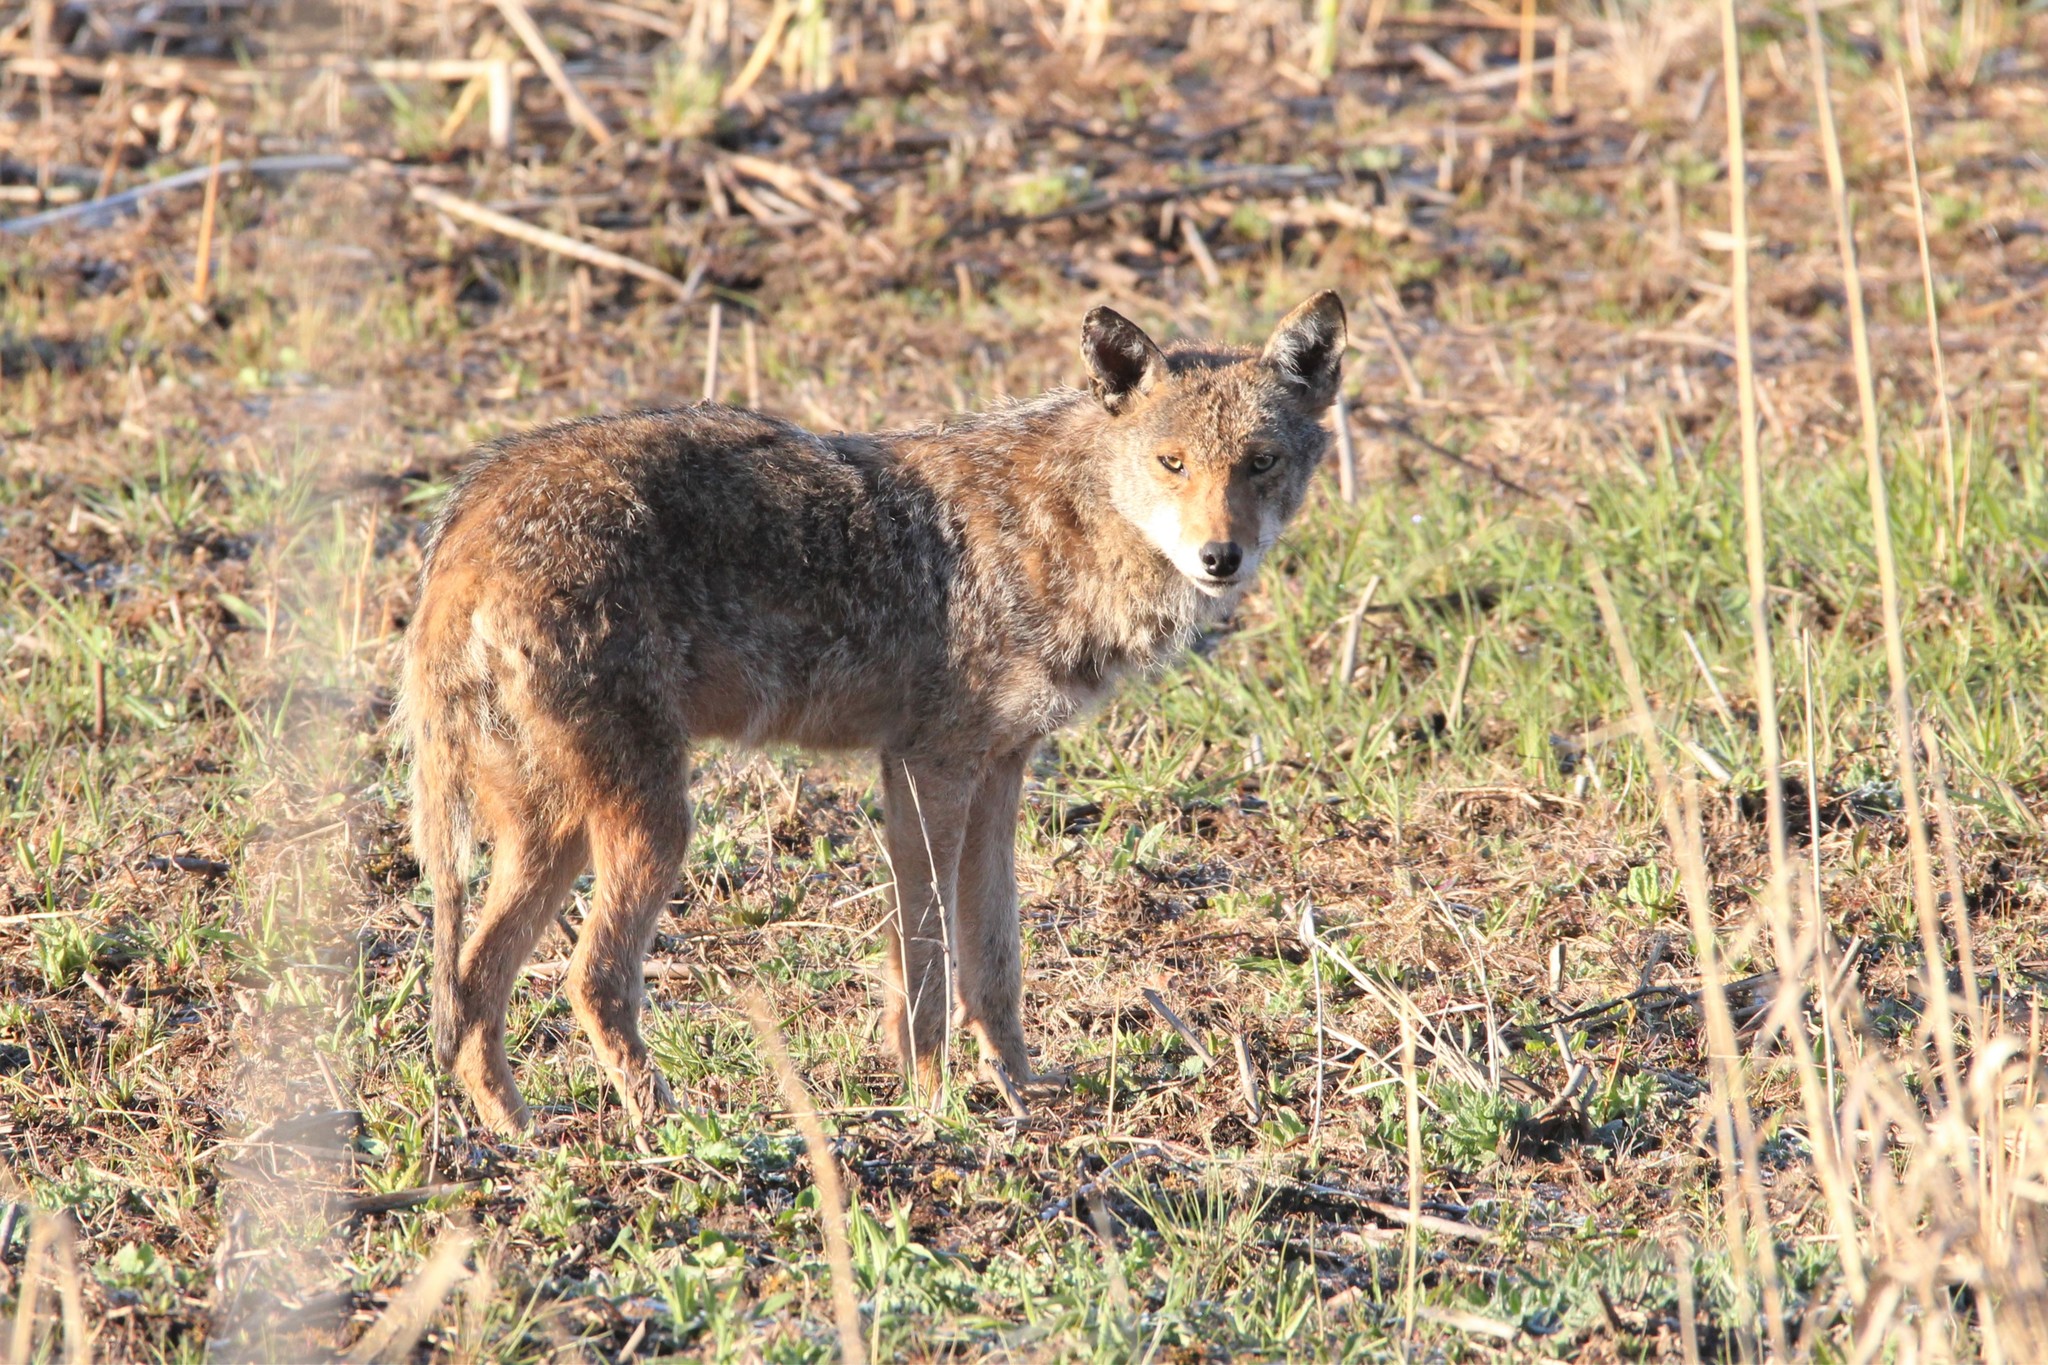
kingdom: Animalia
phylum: Chordata
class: Mammalia
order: Carnivora
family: Canidae
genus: Canis
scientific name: Canis latrans
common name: Coyote
